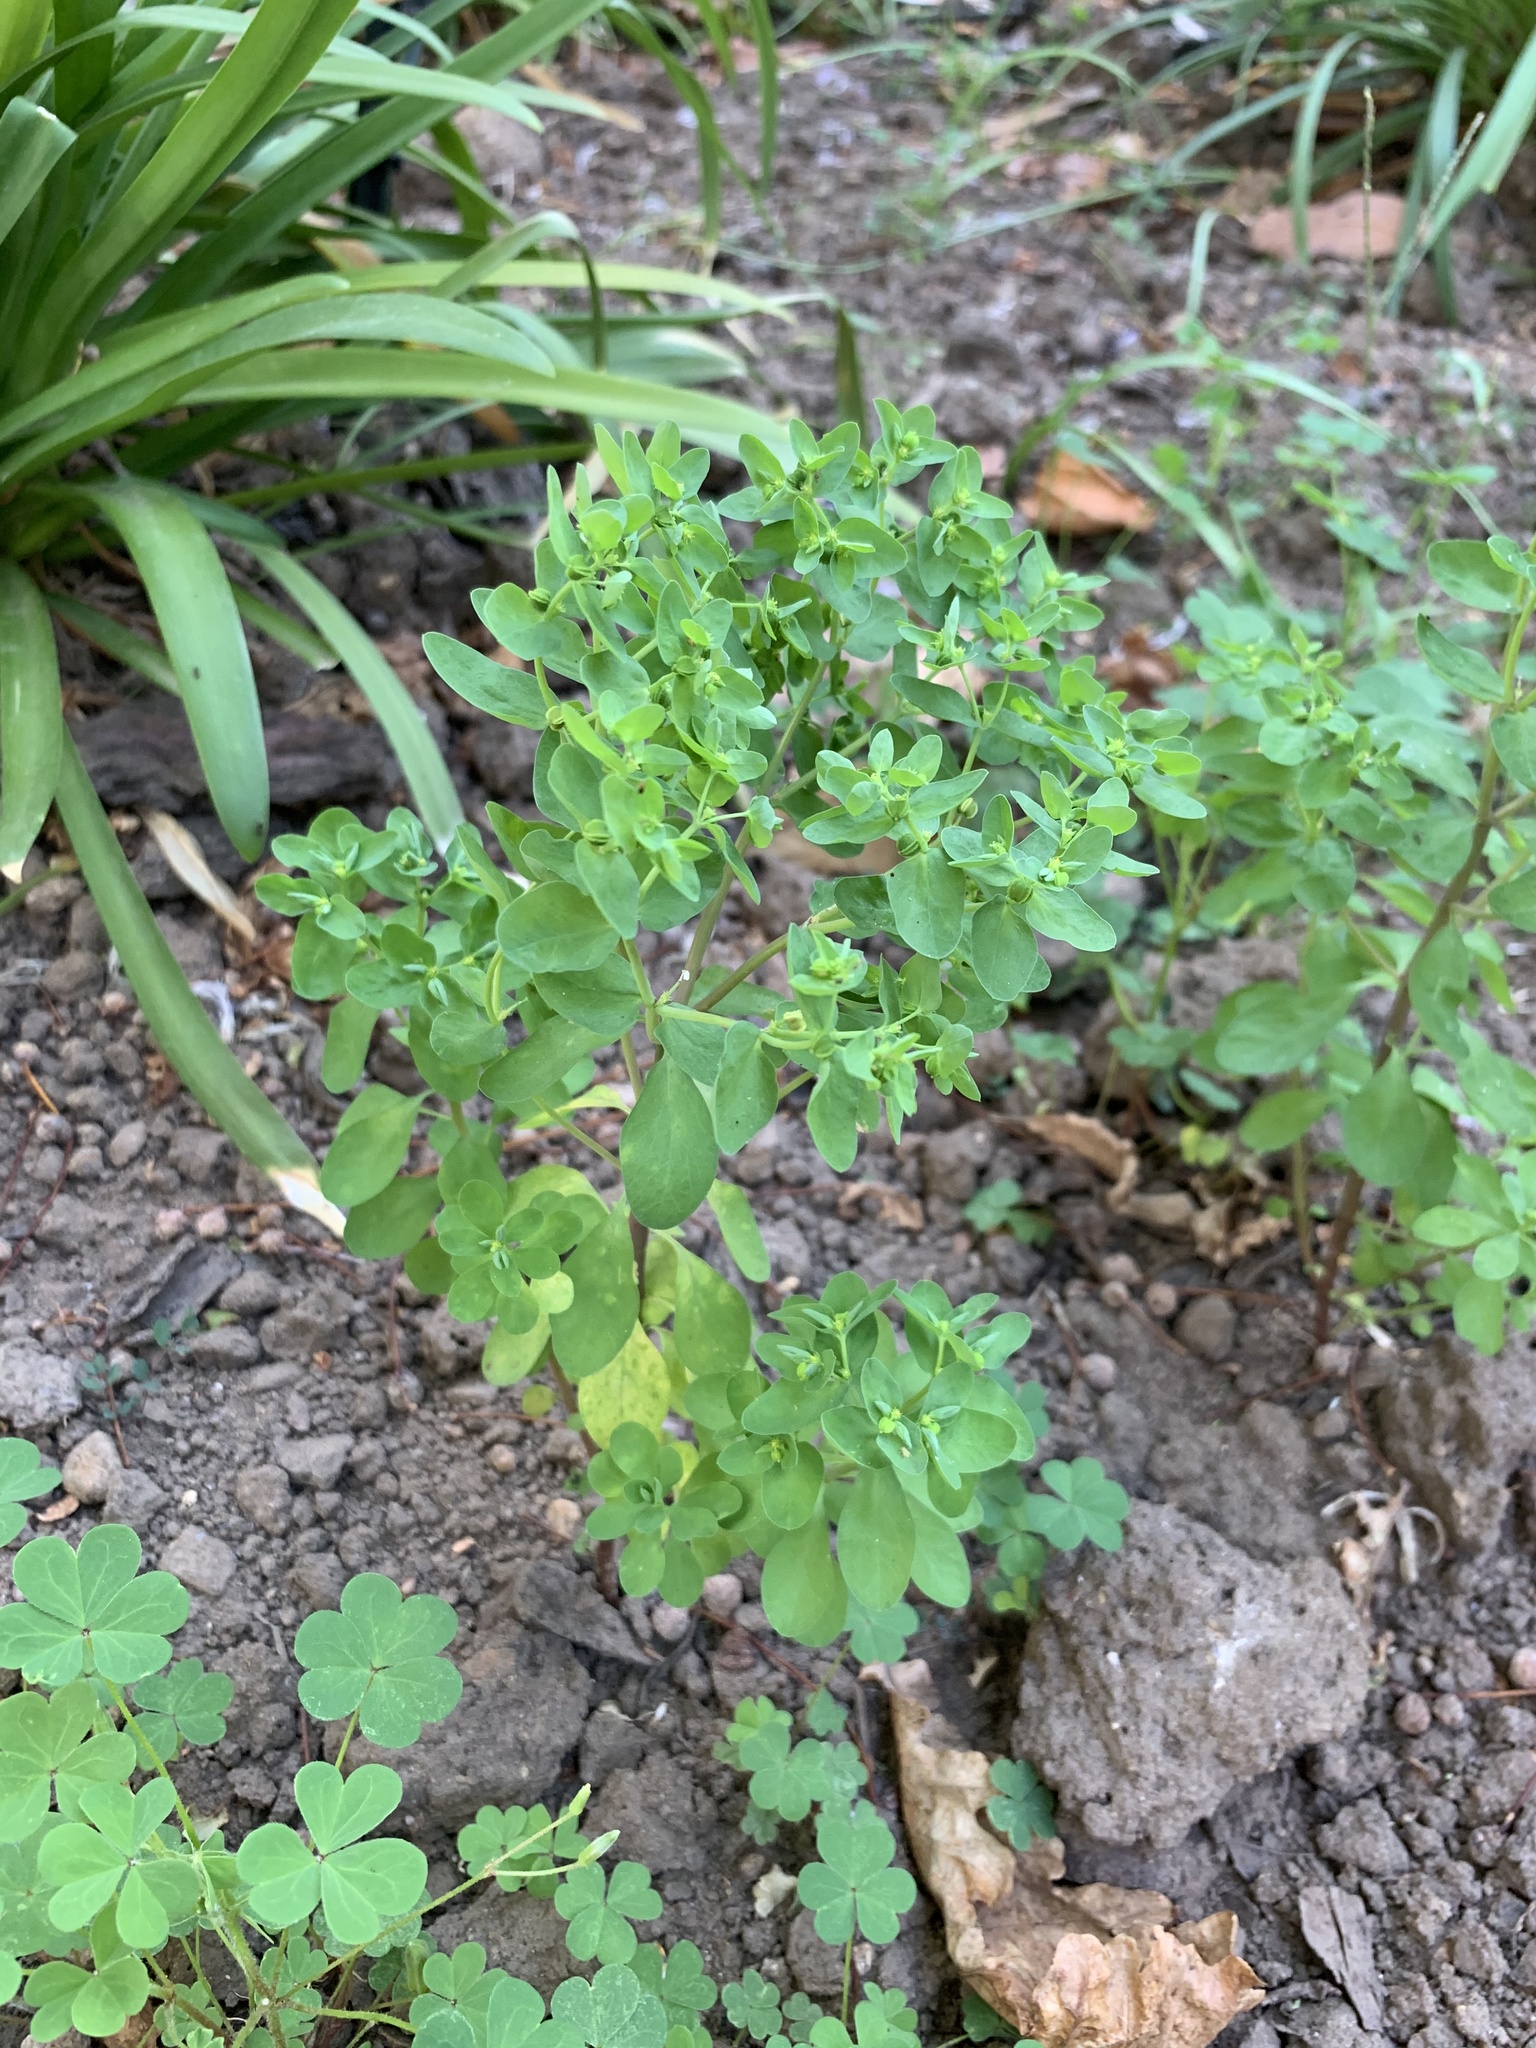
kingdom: Plantae
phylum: Tracheophyta
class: Magnoliopsida
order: Malpighiales
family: Euphorbiaceae
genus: Euphorbia
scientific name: Euphorbia peplus
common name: Petty spurge
